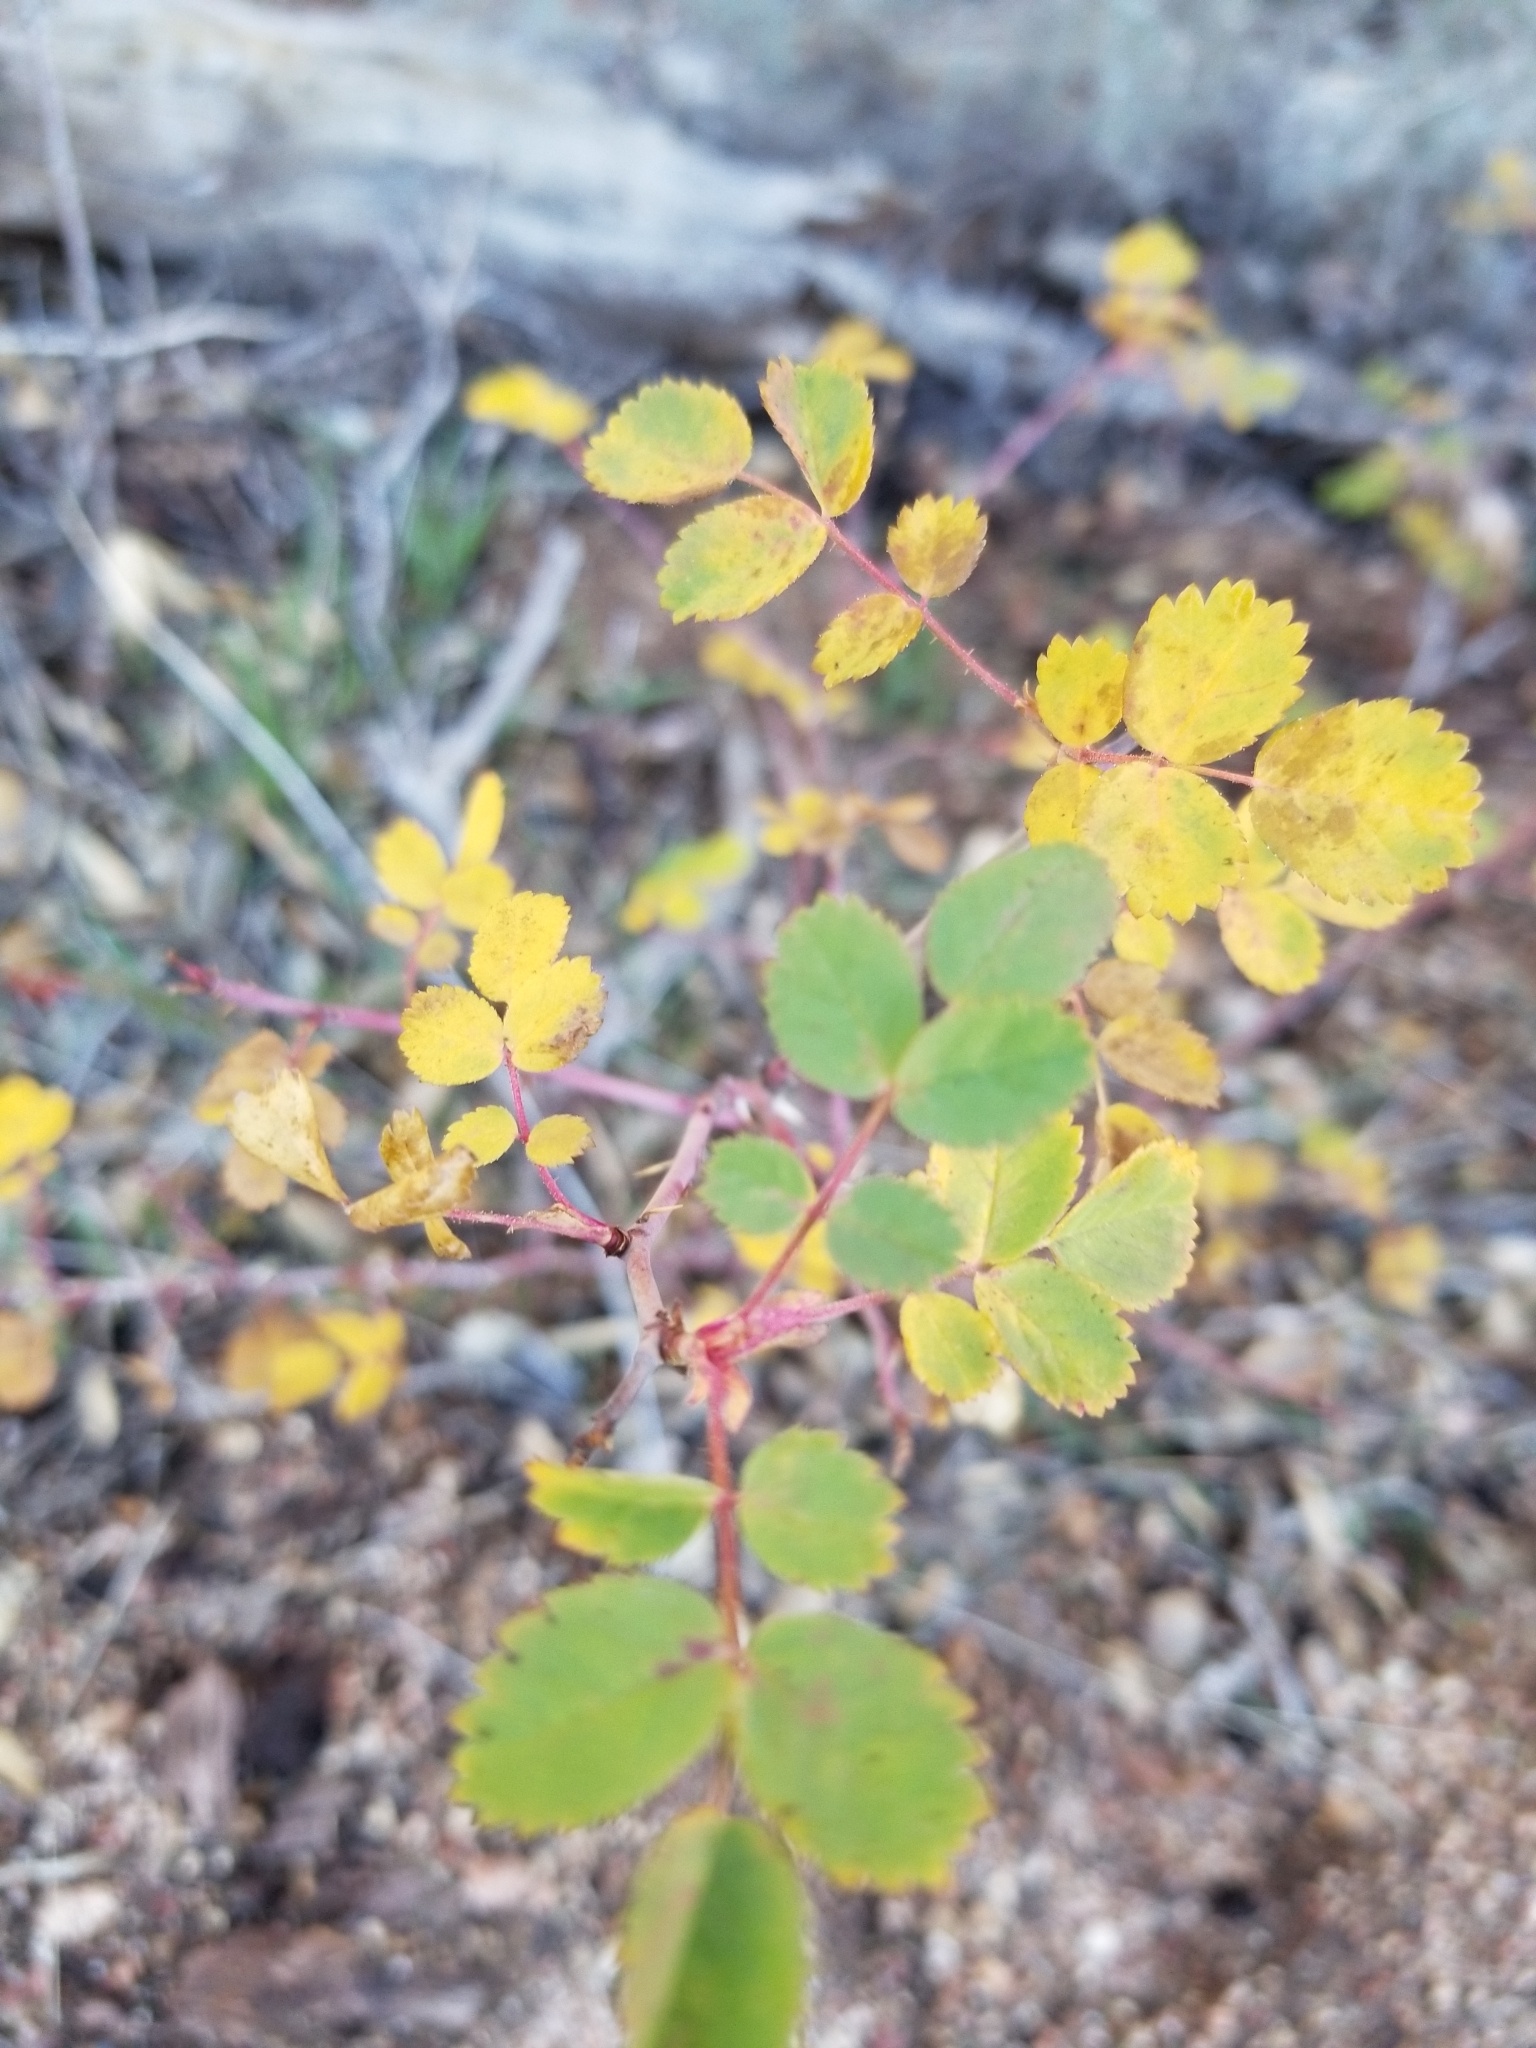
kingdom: Plantae
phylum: Tracheophyta
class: Magnoliopsida
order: Rosales
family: Rosaceae
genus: Rosa
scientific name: Rosa californica
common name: California rose
